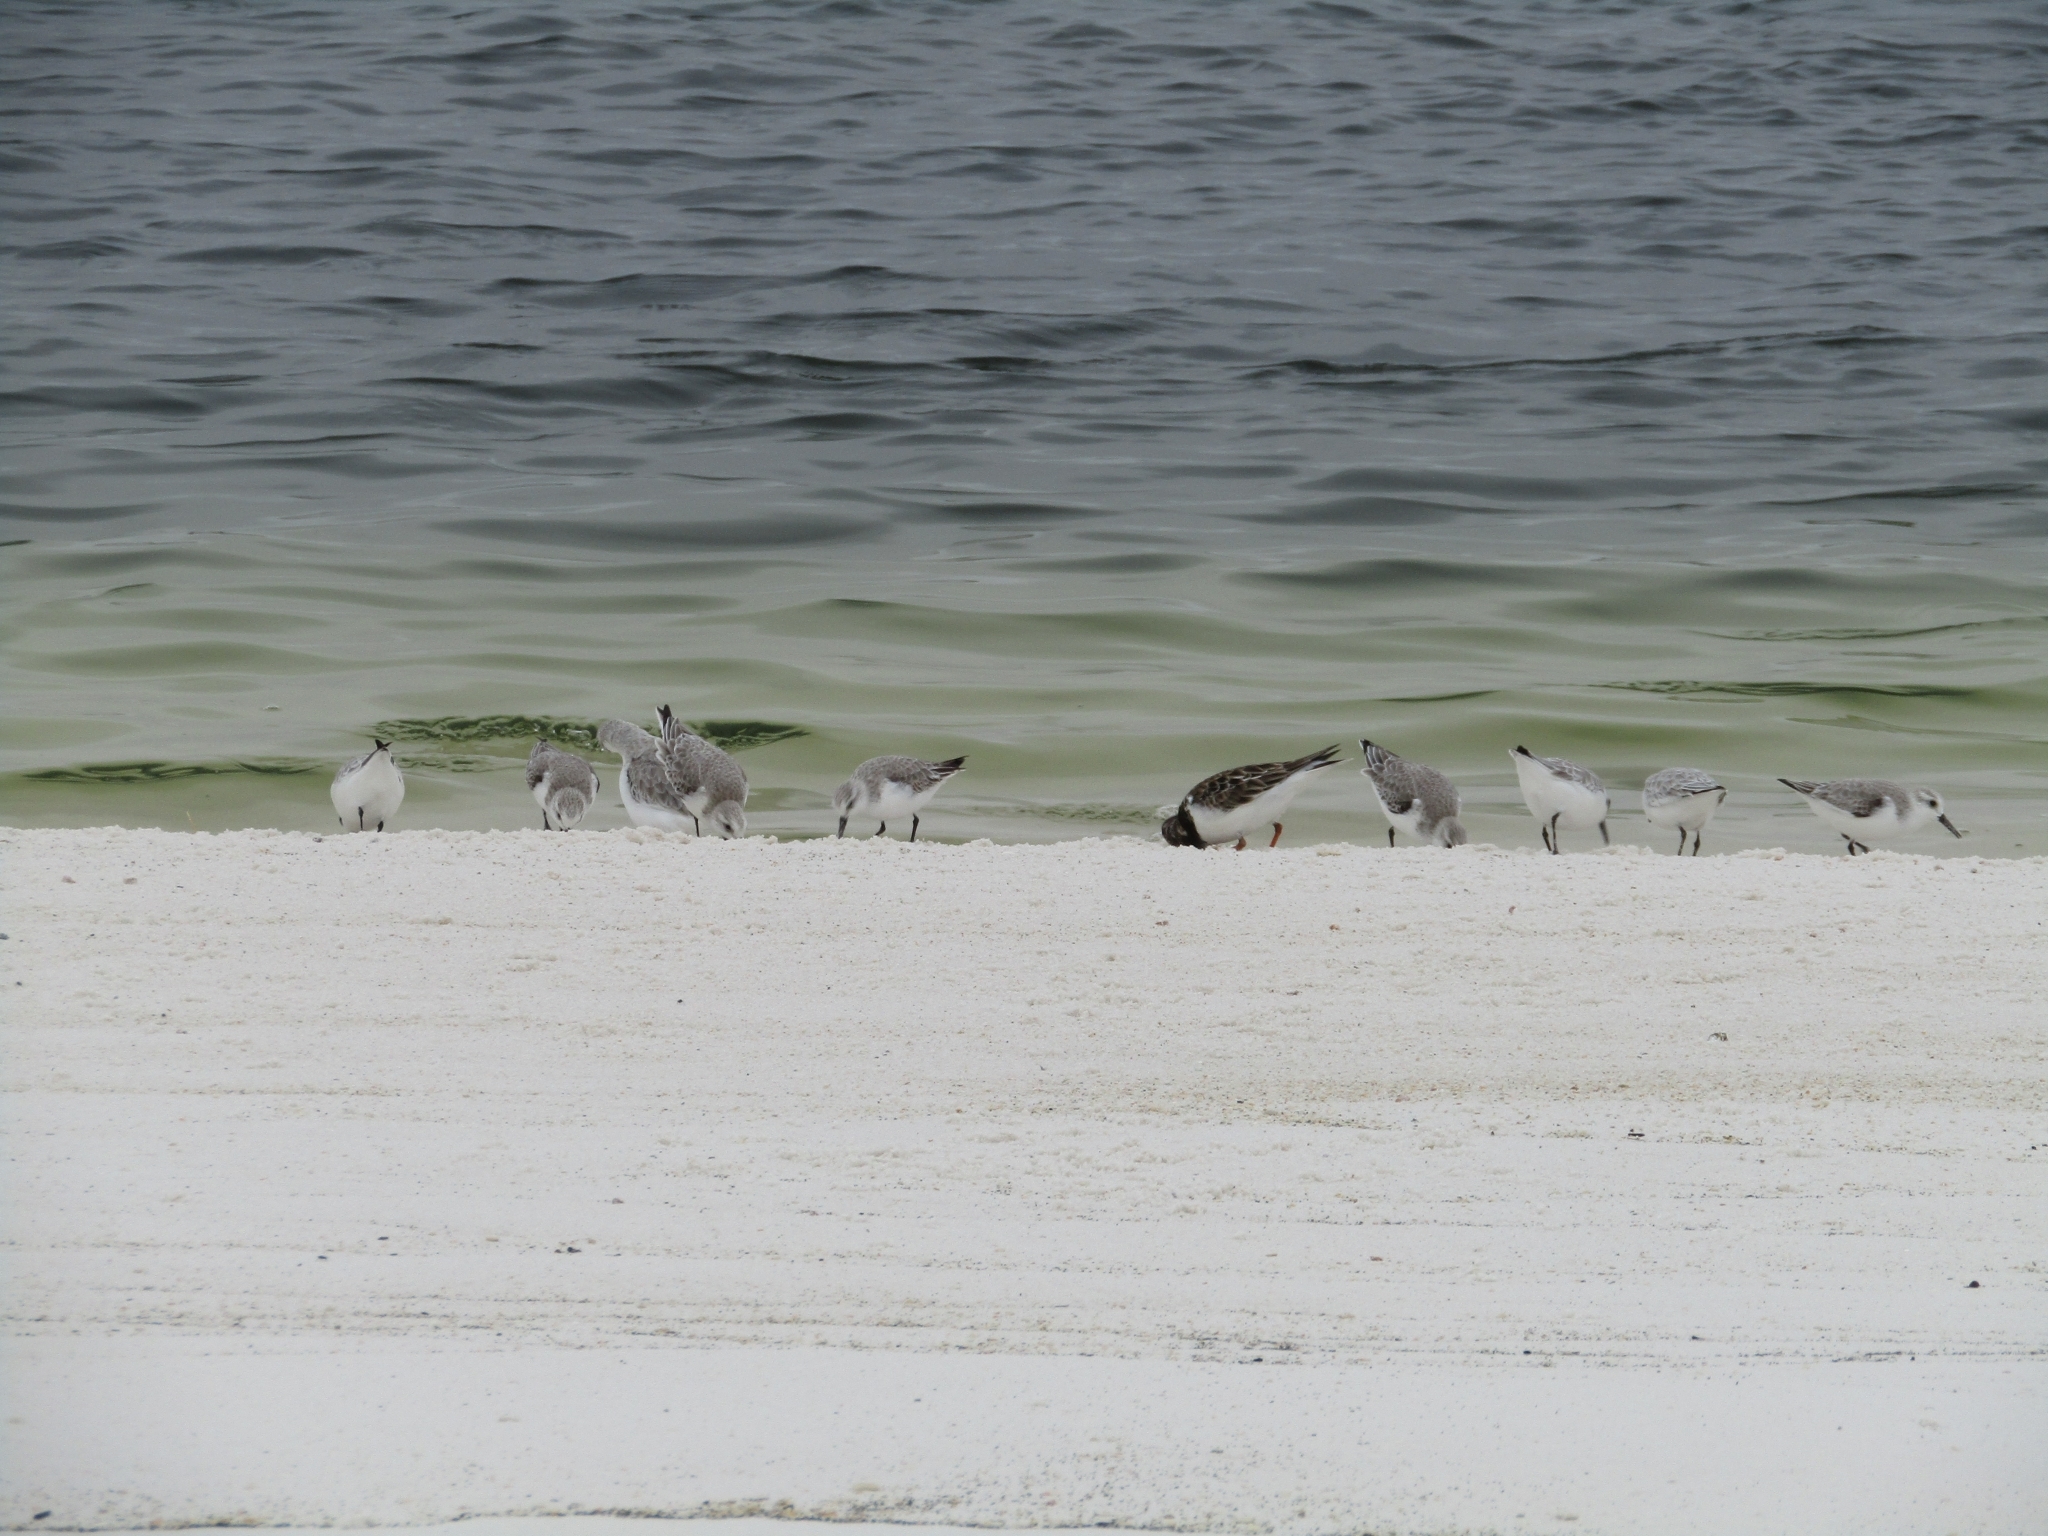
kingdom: Animalia
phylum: Chordata
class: Aves
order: Charadriiformes
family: Scolopacidae
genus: Arenaria
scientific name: Arenaria interpres
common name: Ruddy turnstone
